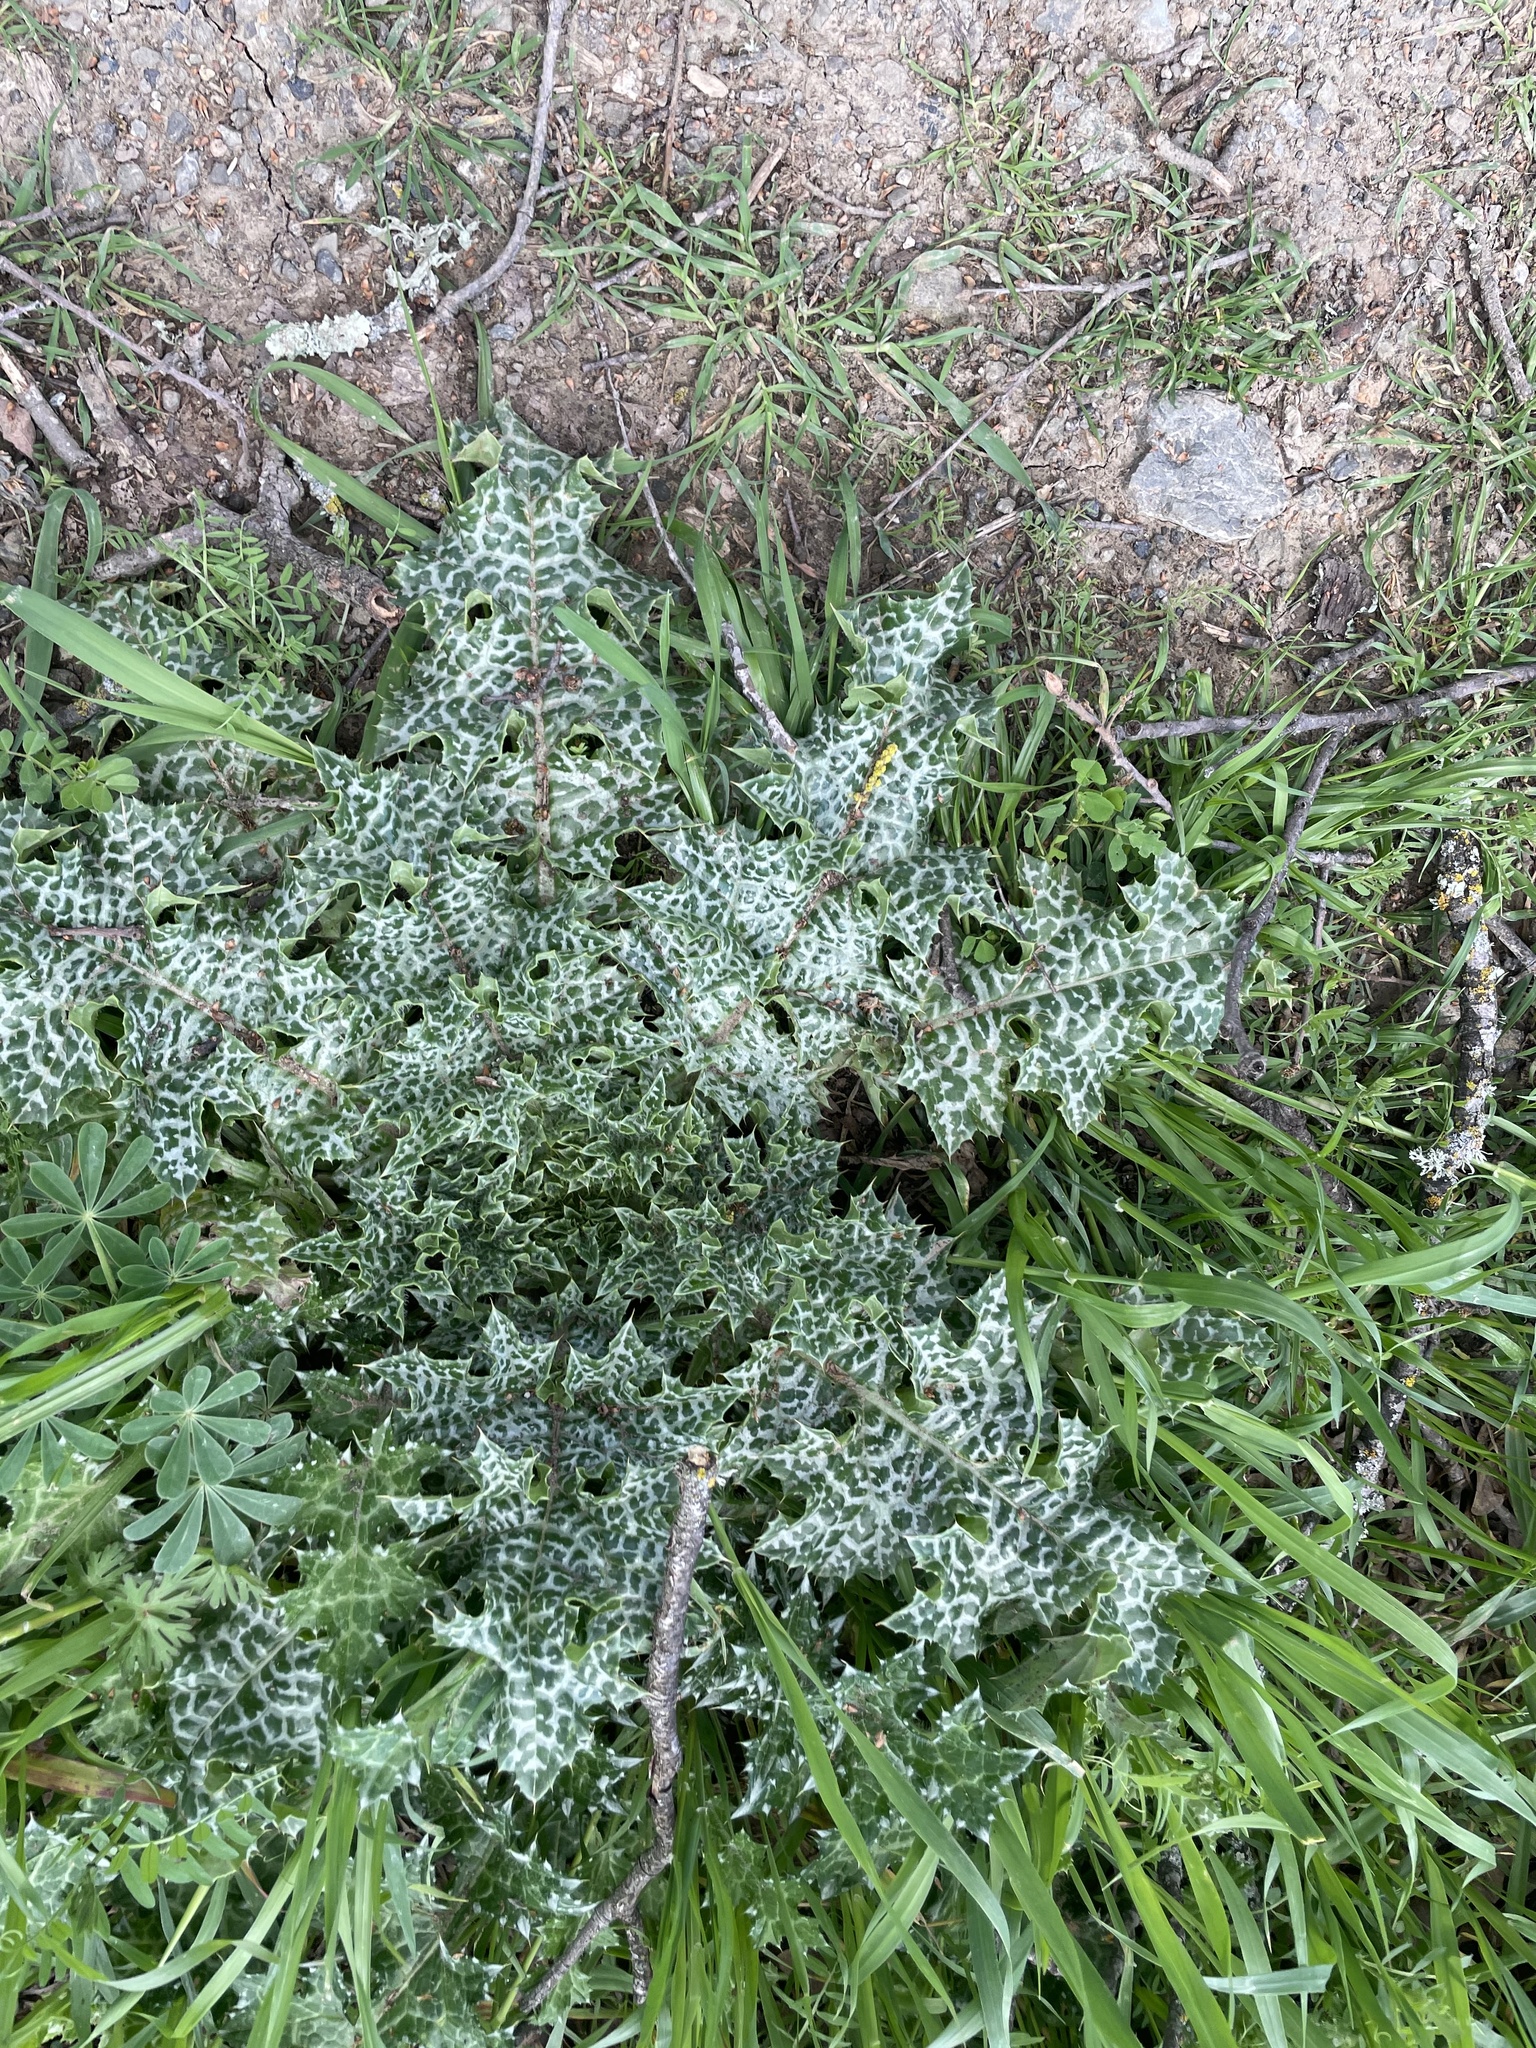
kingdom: Plantae
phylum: Tracheophyta
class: Magnoliopsida
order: Asterales
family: Asteraceae
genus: Silybum
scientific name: Silybum marianum
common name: Milk thistle
